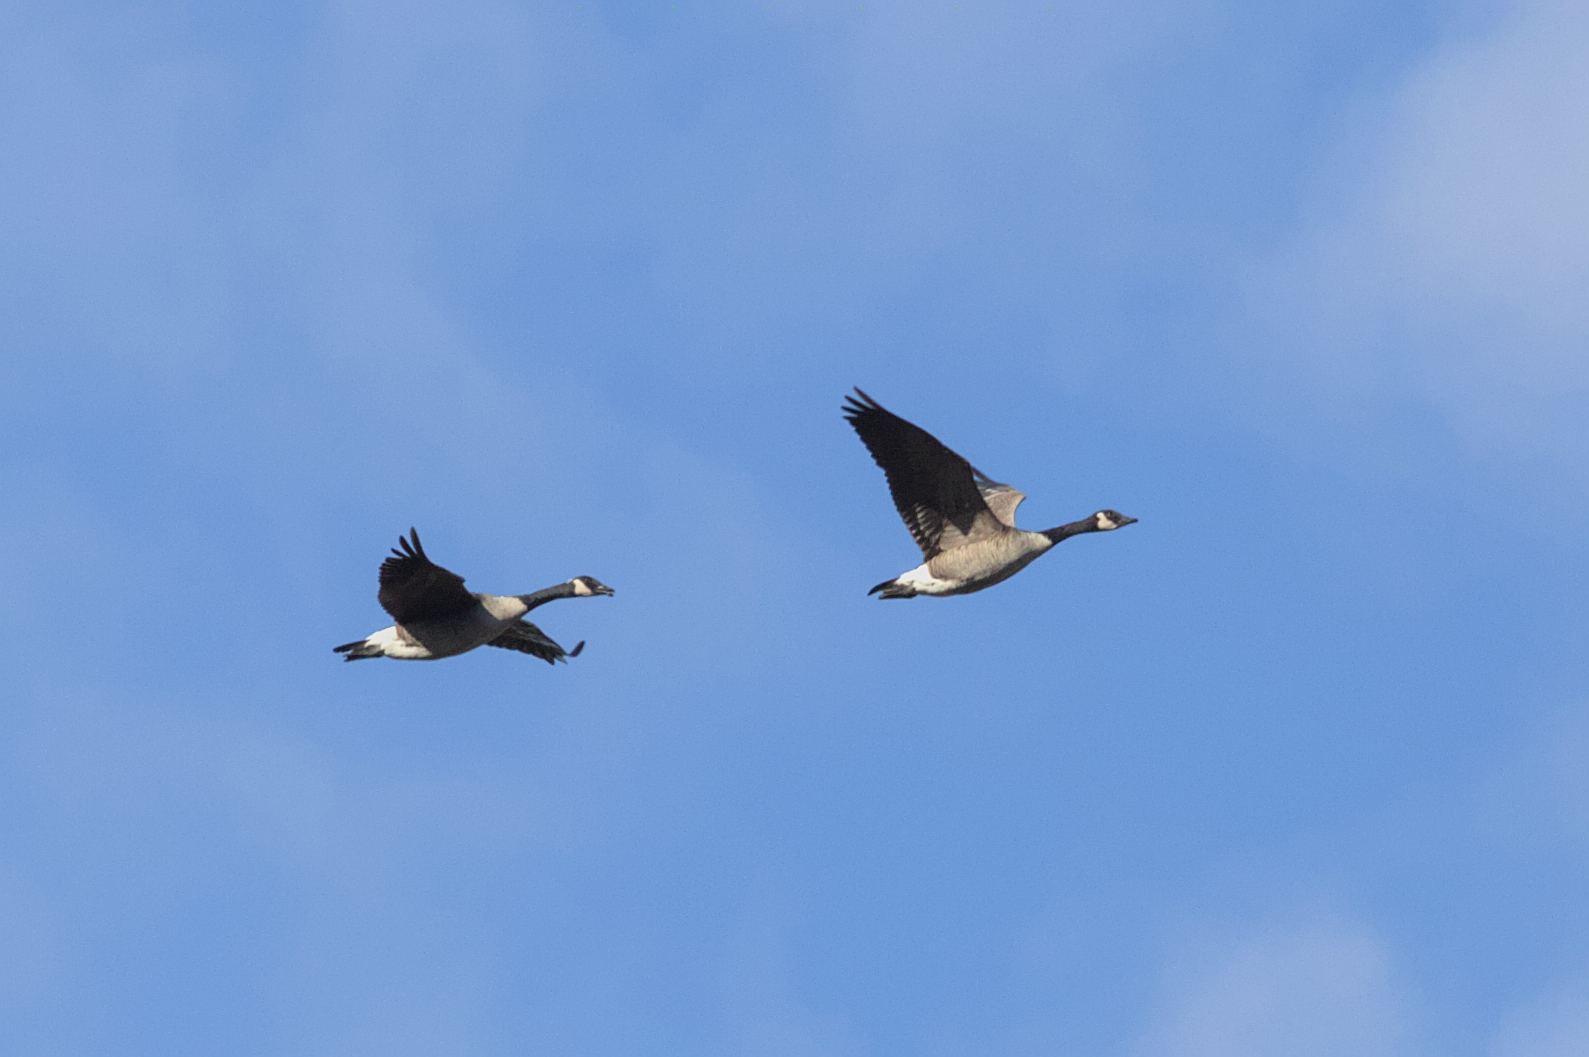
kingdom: Animalia
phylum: Chordata
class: Aves
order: Anseriformes
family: Anatidae
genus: Branta
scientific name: Branta canadensis
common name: Canada goose
